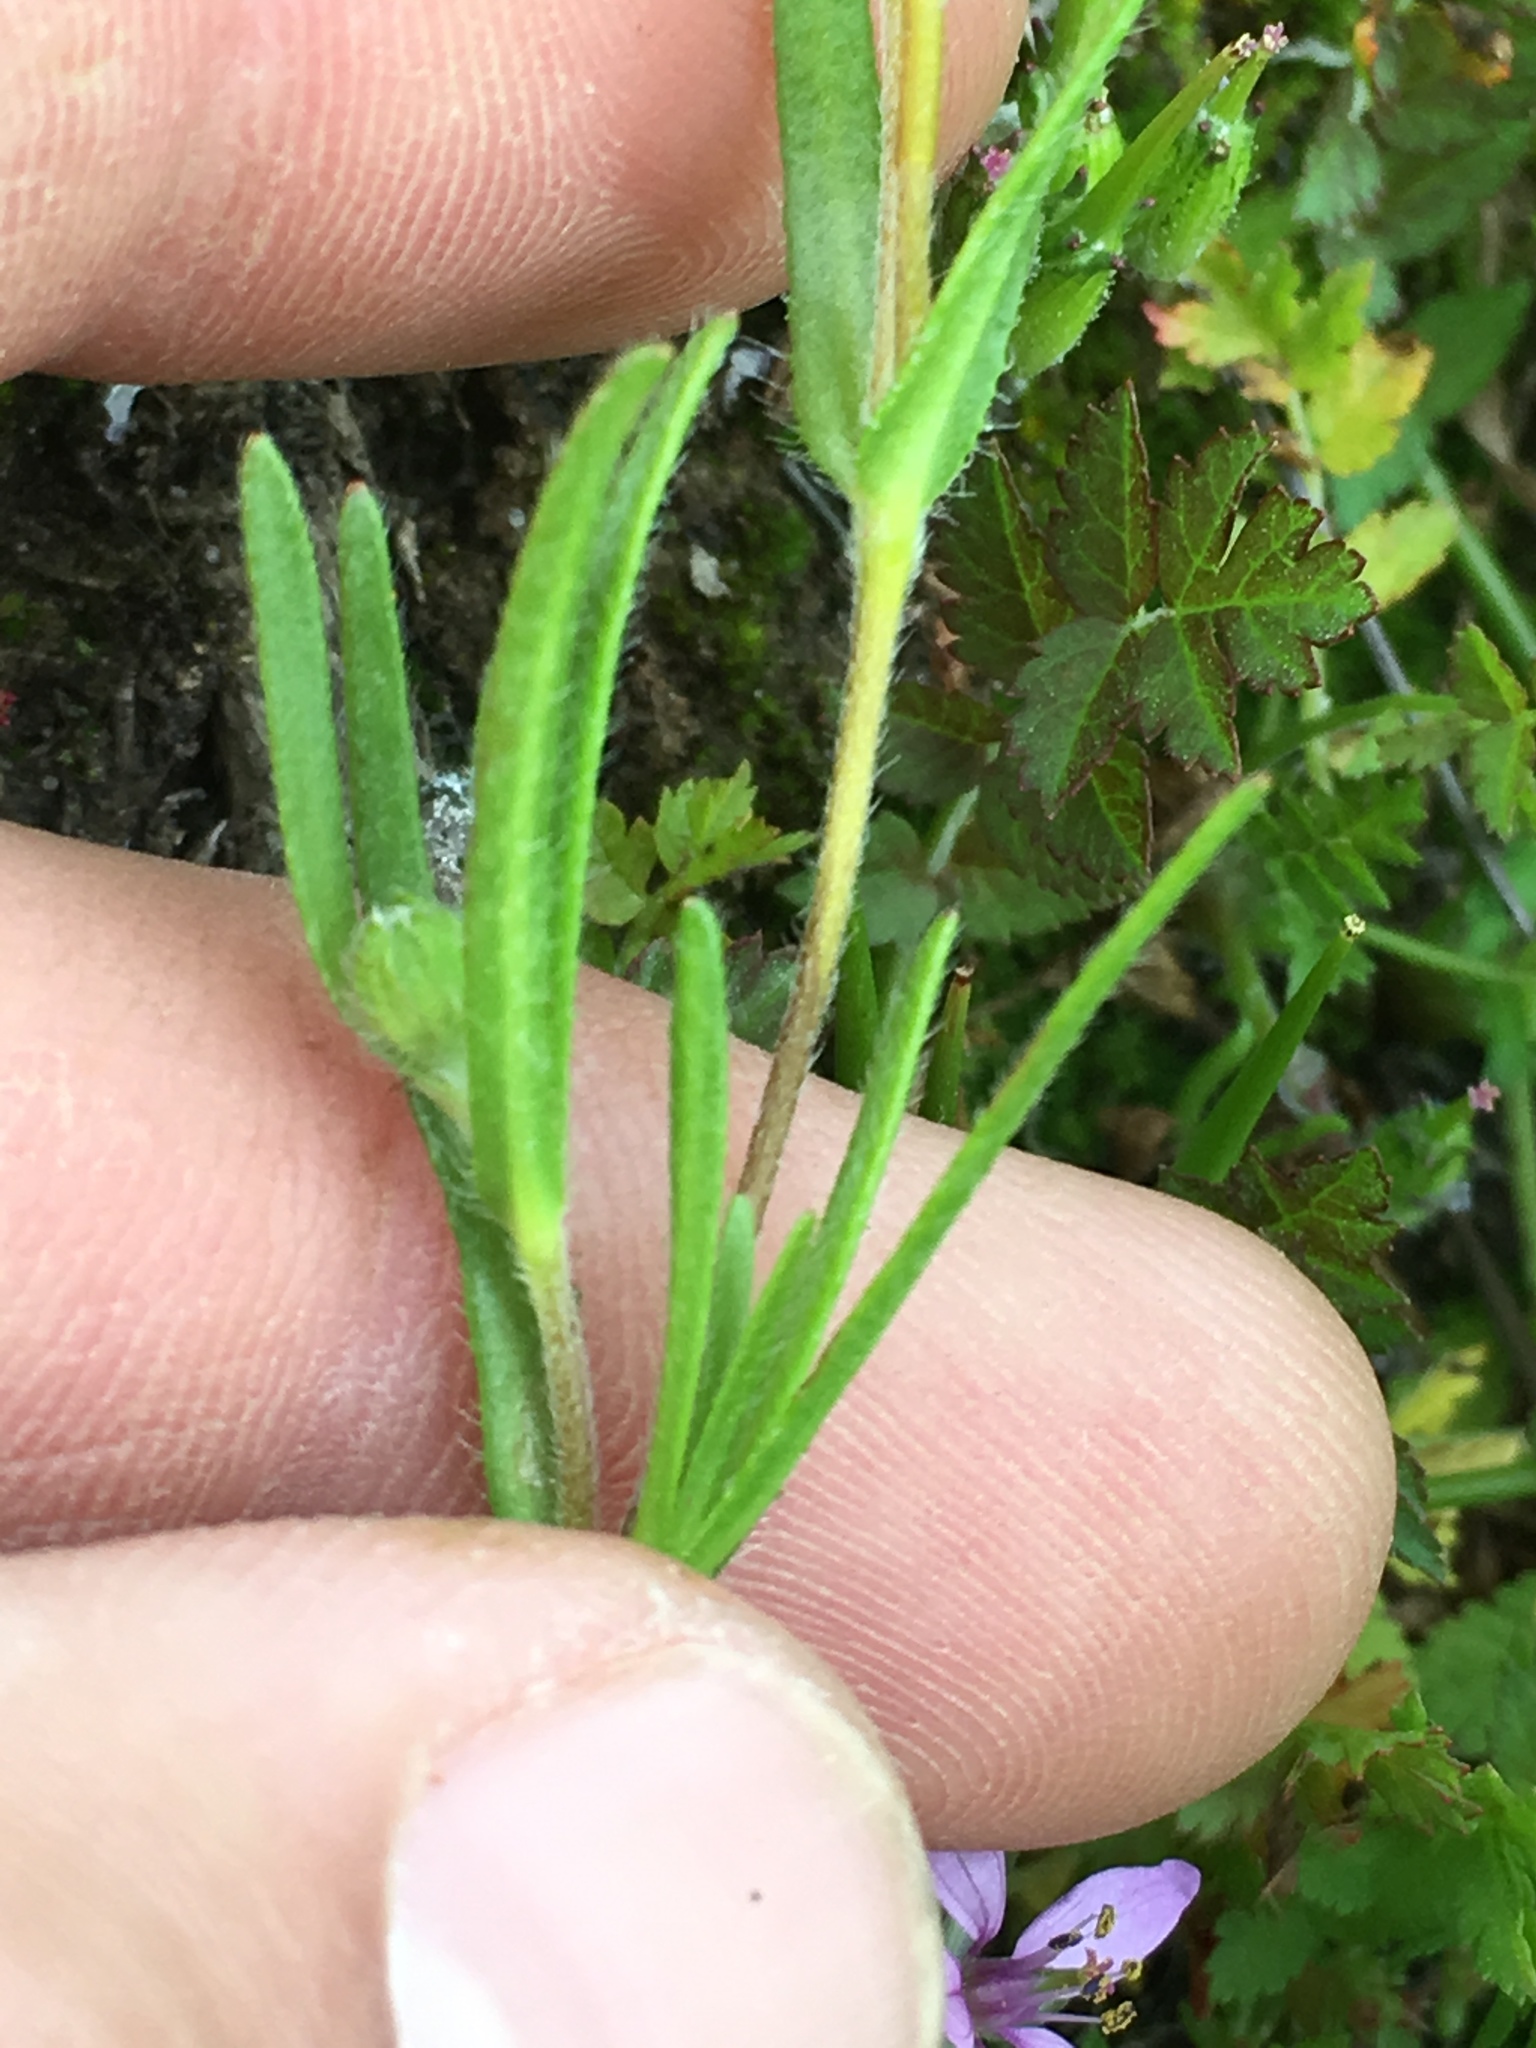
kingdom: Plantae
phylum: Tracheophyta
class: Magnoliopsida
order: Asterales
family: Asteraceae
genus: Lasthenia
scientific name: Lasthenia gracilis
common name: Common goldfields
